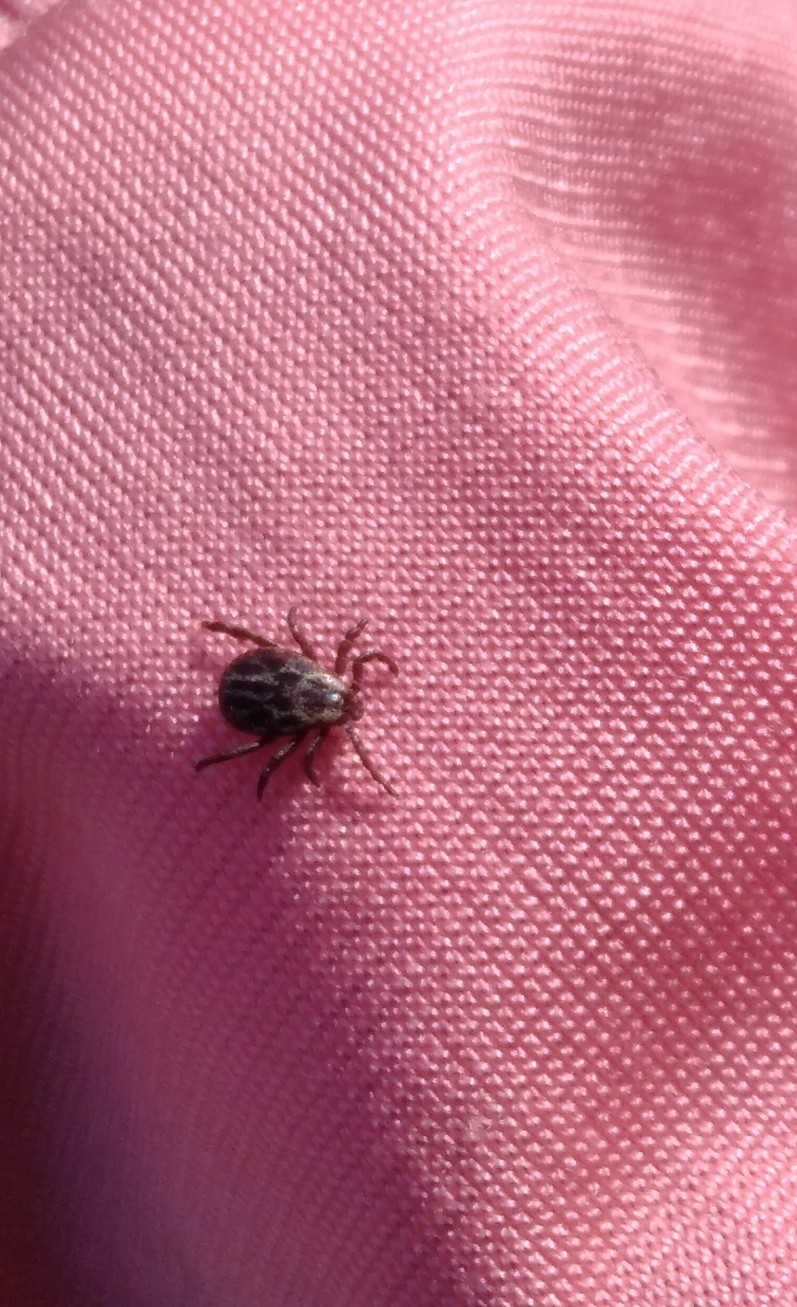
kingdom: Animalia
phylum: Arthropoda
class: Arachnida
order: Ixodida
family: Ixodidae
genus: Dermacentor
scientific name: Dermacentor reticulatus
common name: Ornate cow tick
